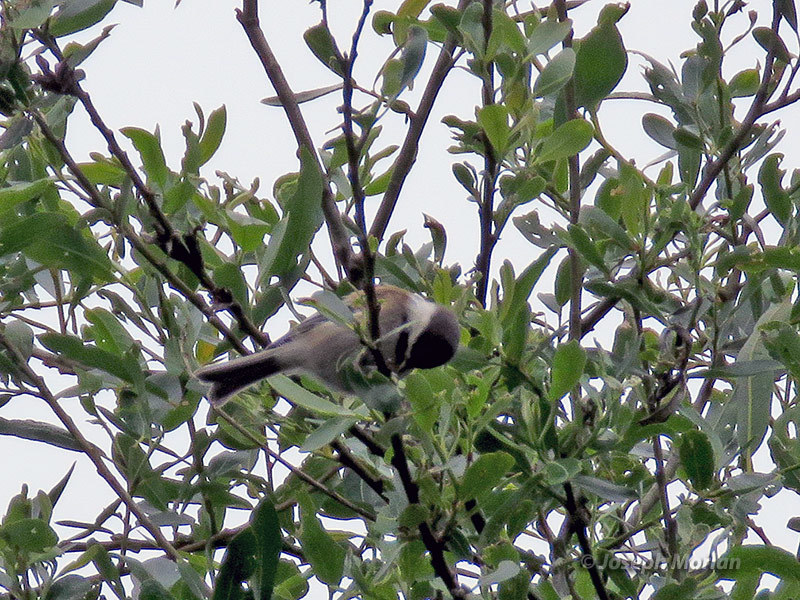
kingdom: Animalia
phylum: Chordata
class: Aves
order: Passeriformes
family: Paridae
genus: Poecile
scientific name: Poecile rufescens
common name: Chestnut-backed chickadee
